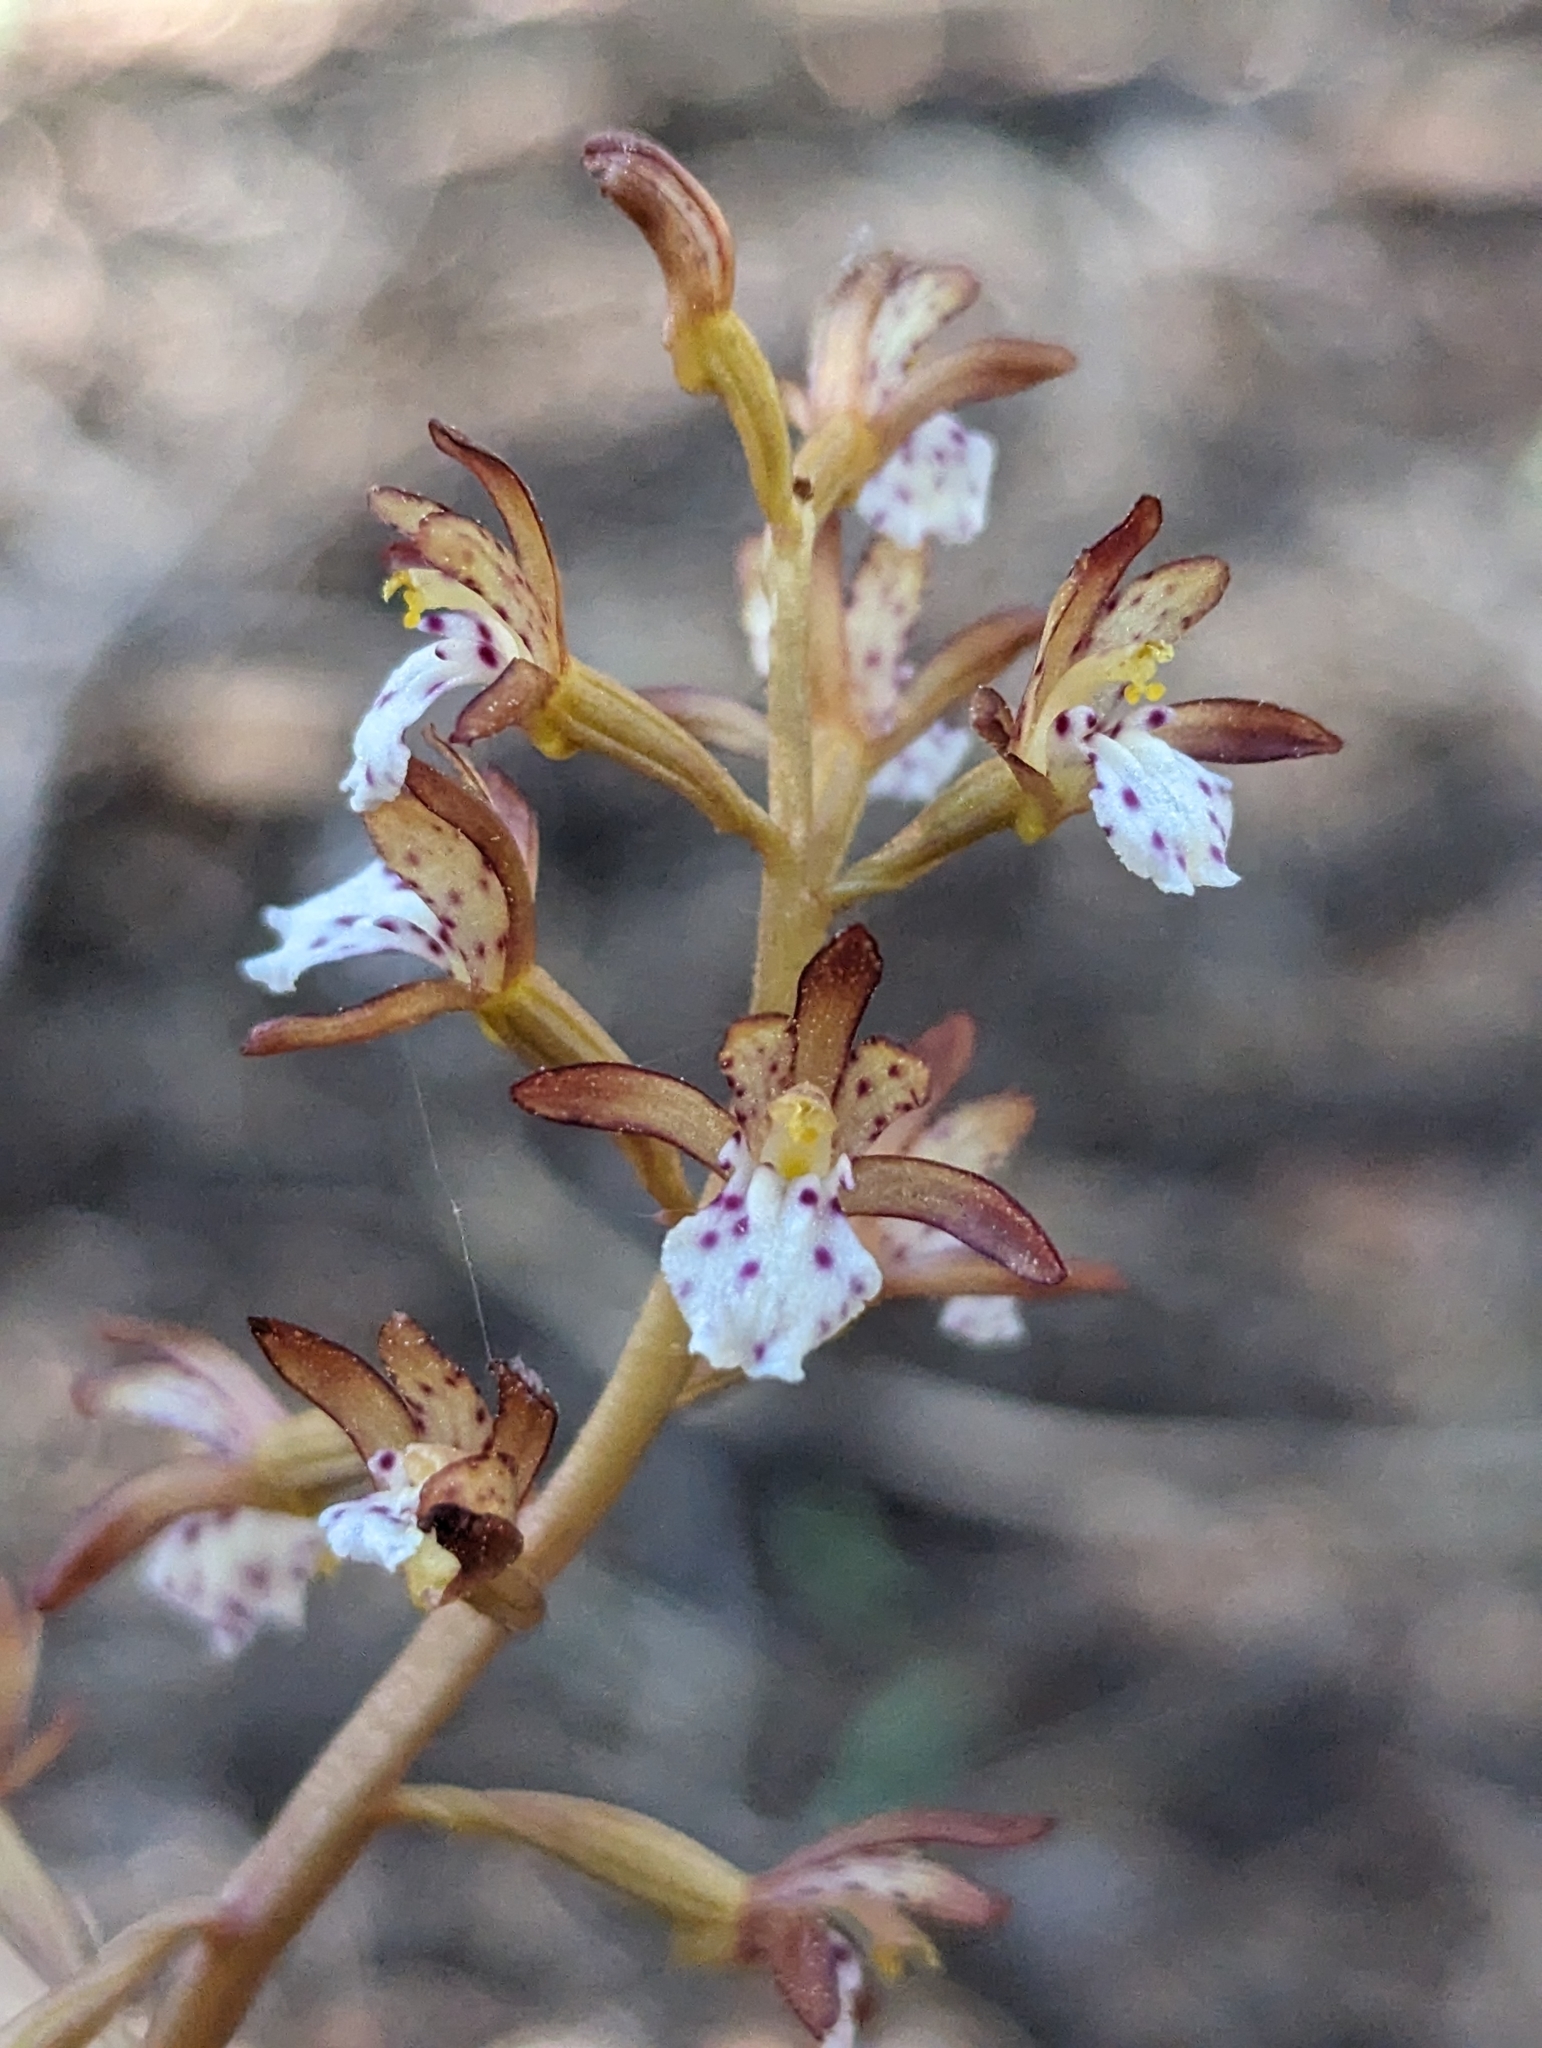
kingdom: Plantae
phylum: Tracheophyta
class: Liliopsida
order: Asparagales
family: Orchidaceae
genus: Corallorhiza
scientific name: Corallorhiza maculata
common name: Spotted coralroot
